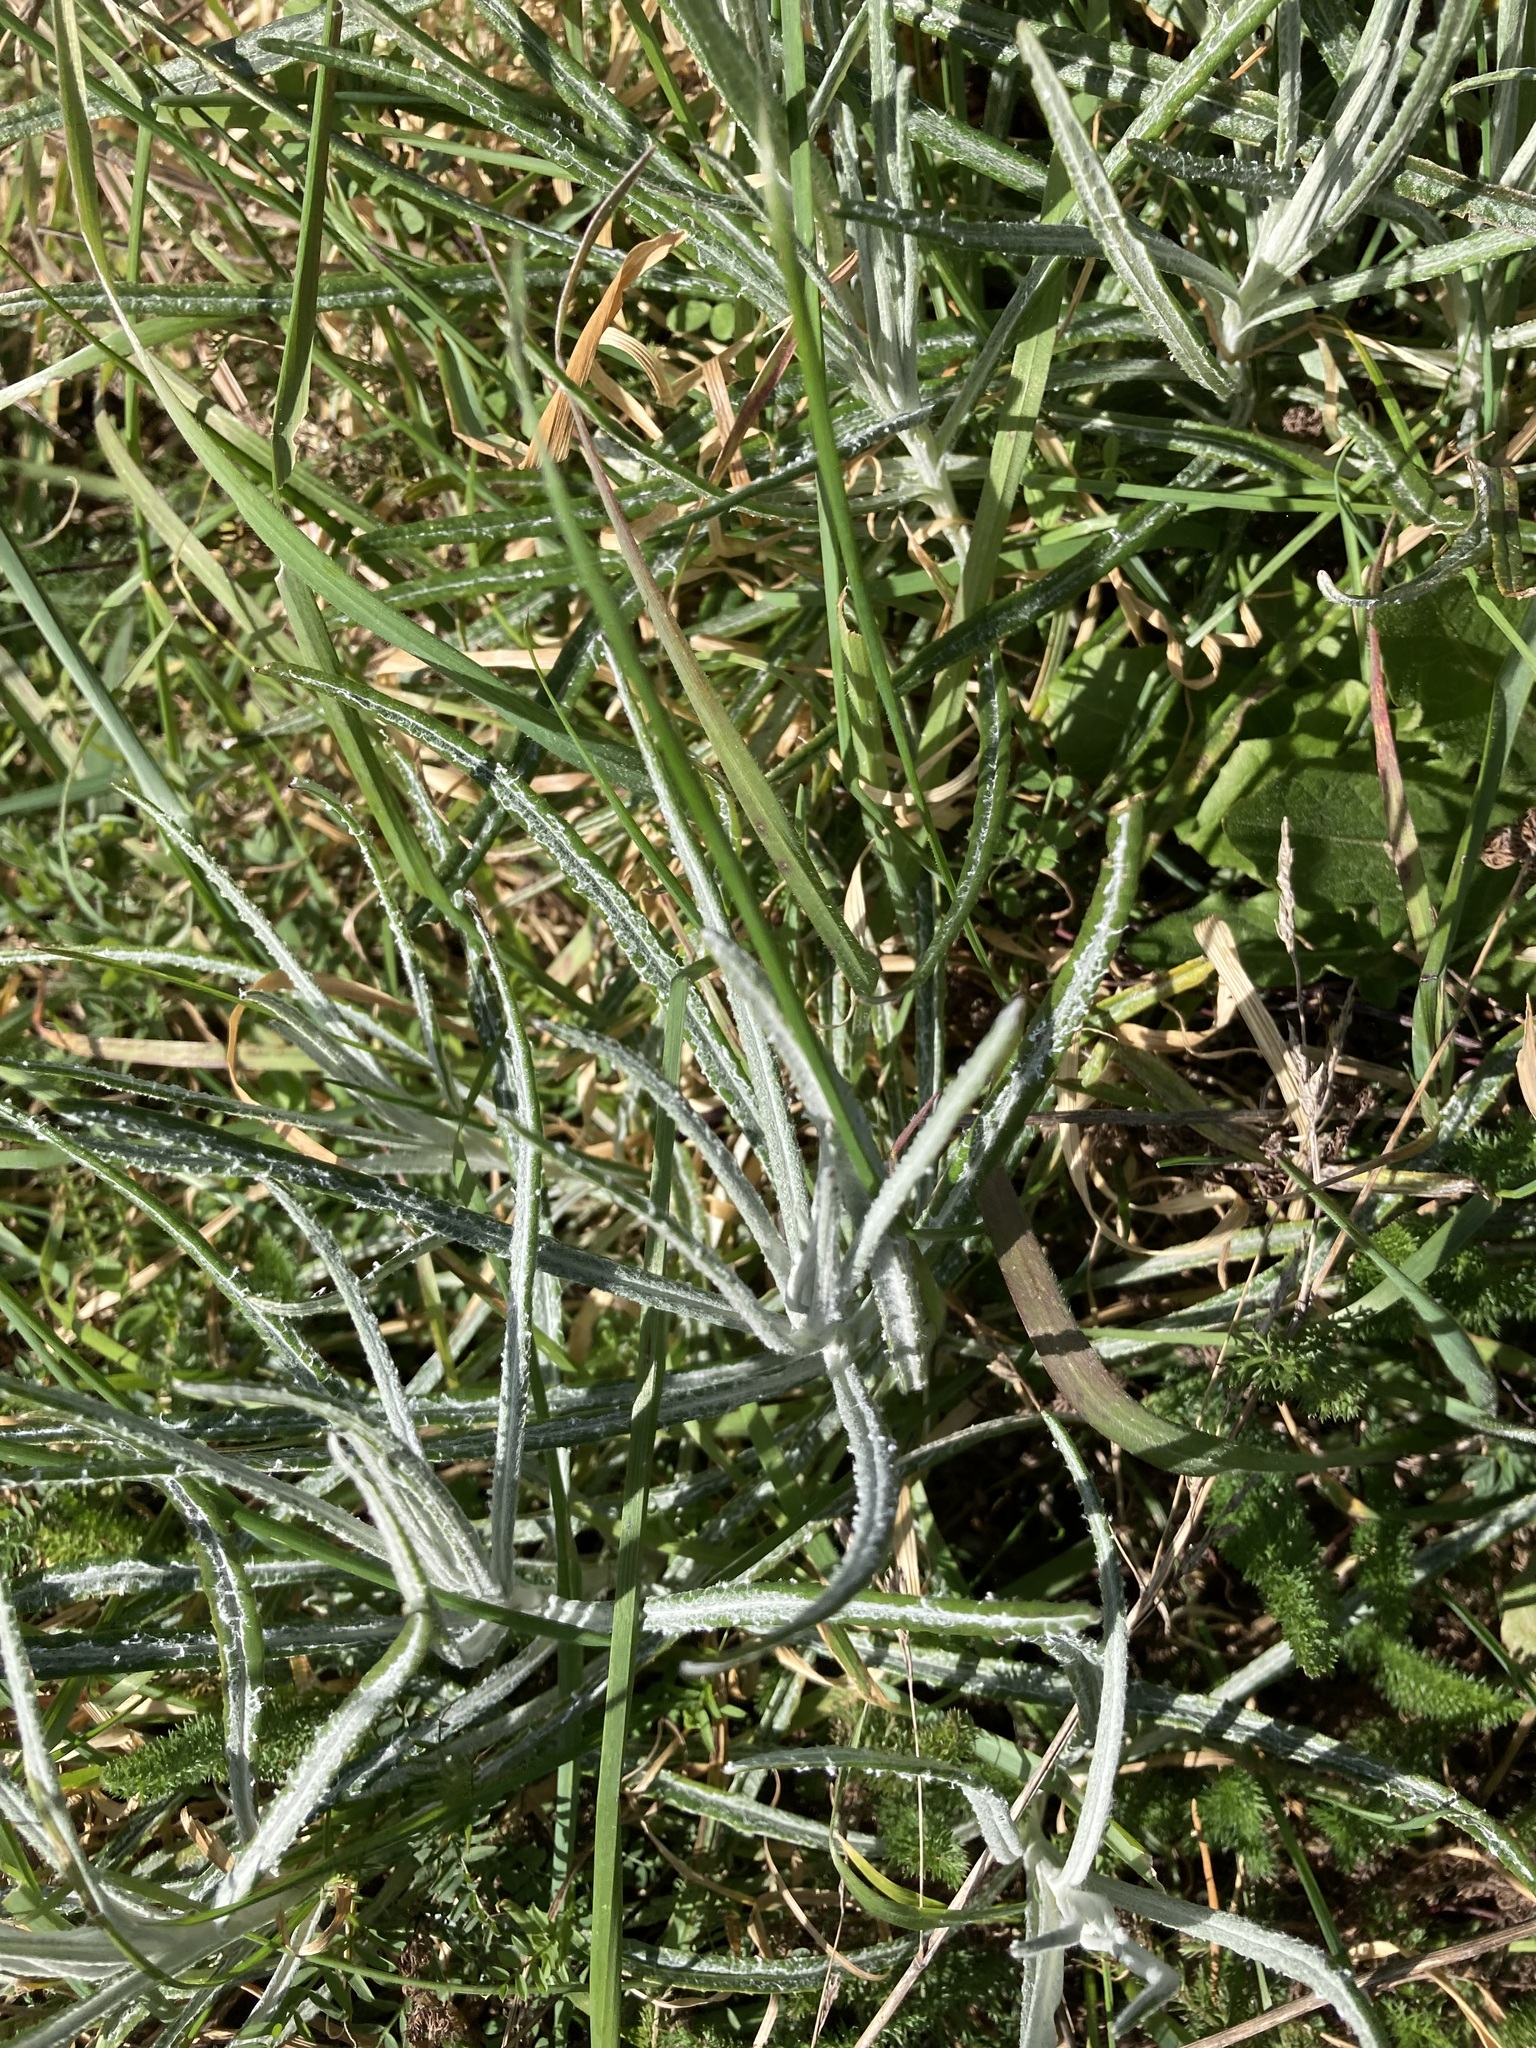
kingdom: Plantae
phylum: Tracheophyta
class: Magnoliopsida
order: Asterales
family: Asteraceae
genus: Senecio
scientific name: Senecio quadridentatus
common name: Cotton fireweed
